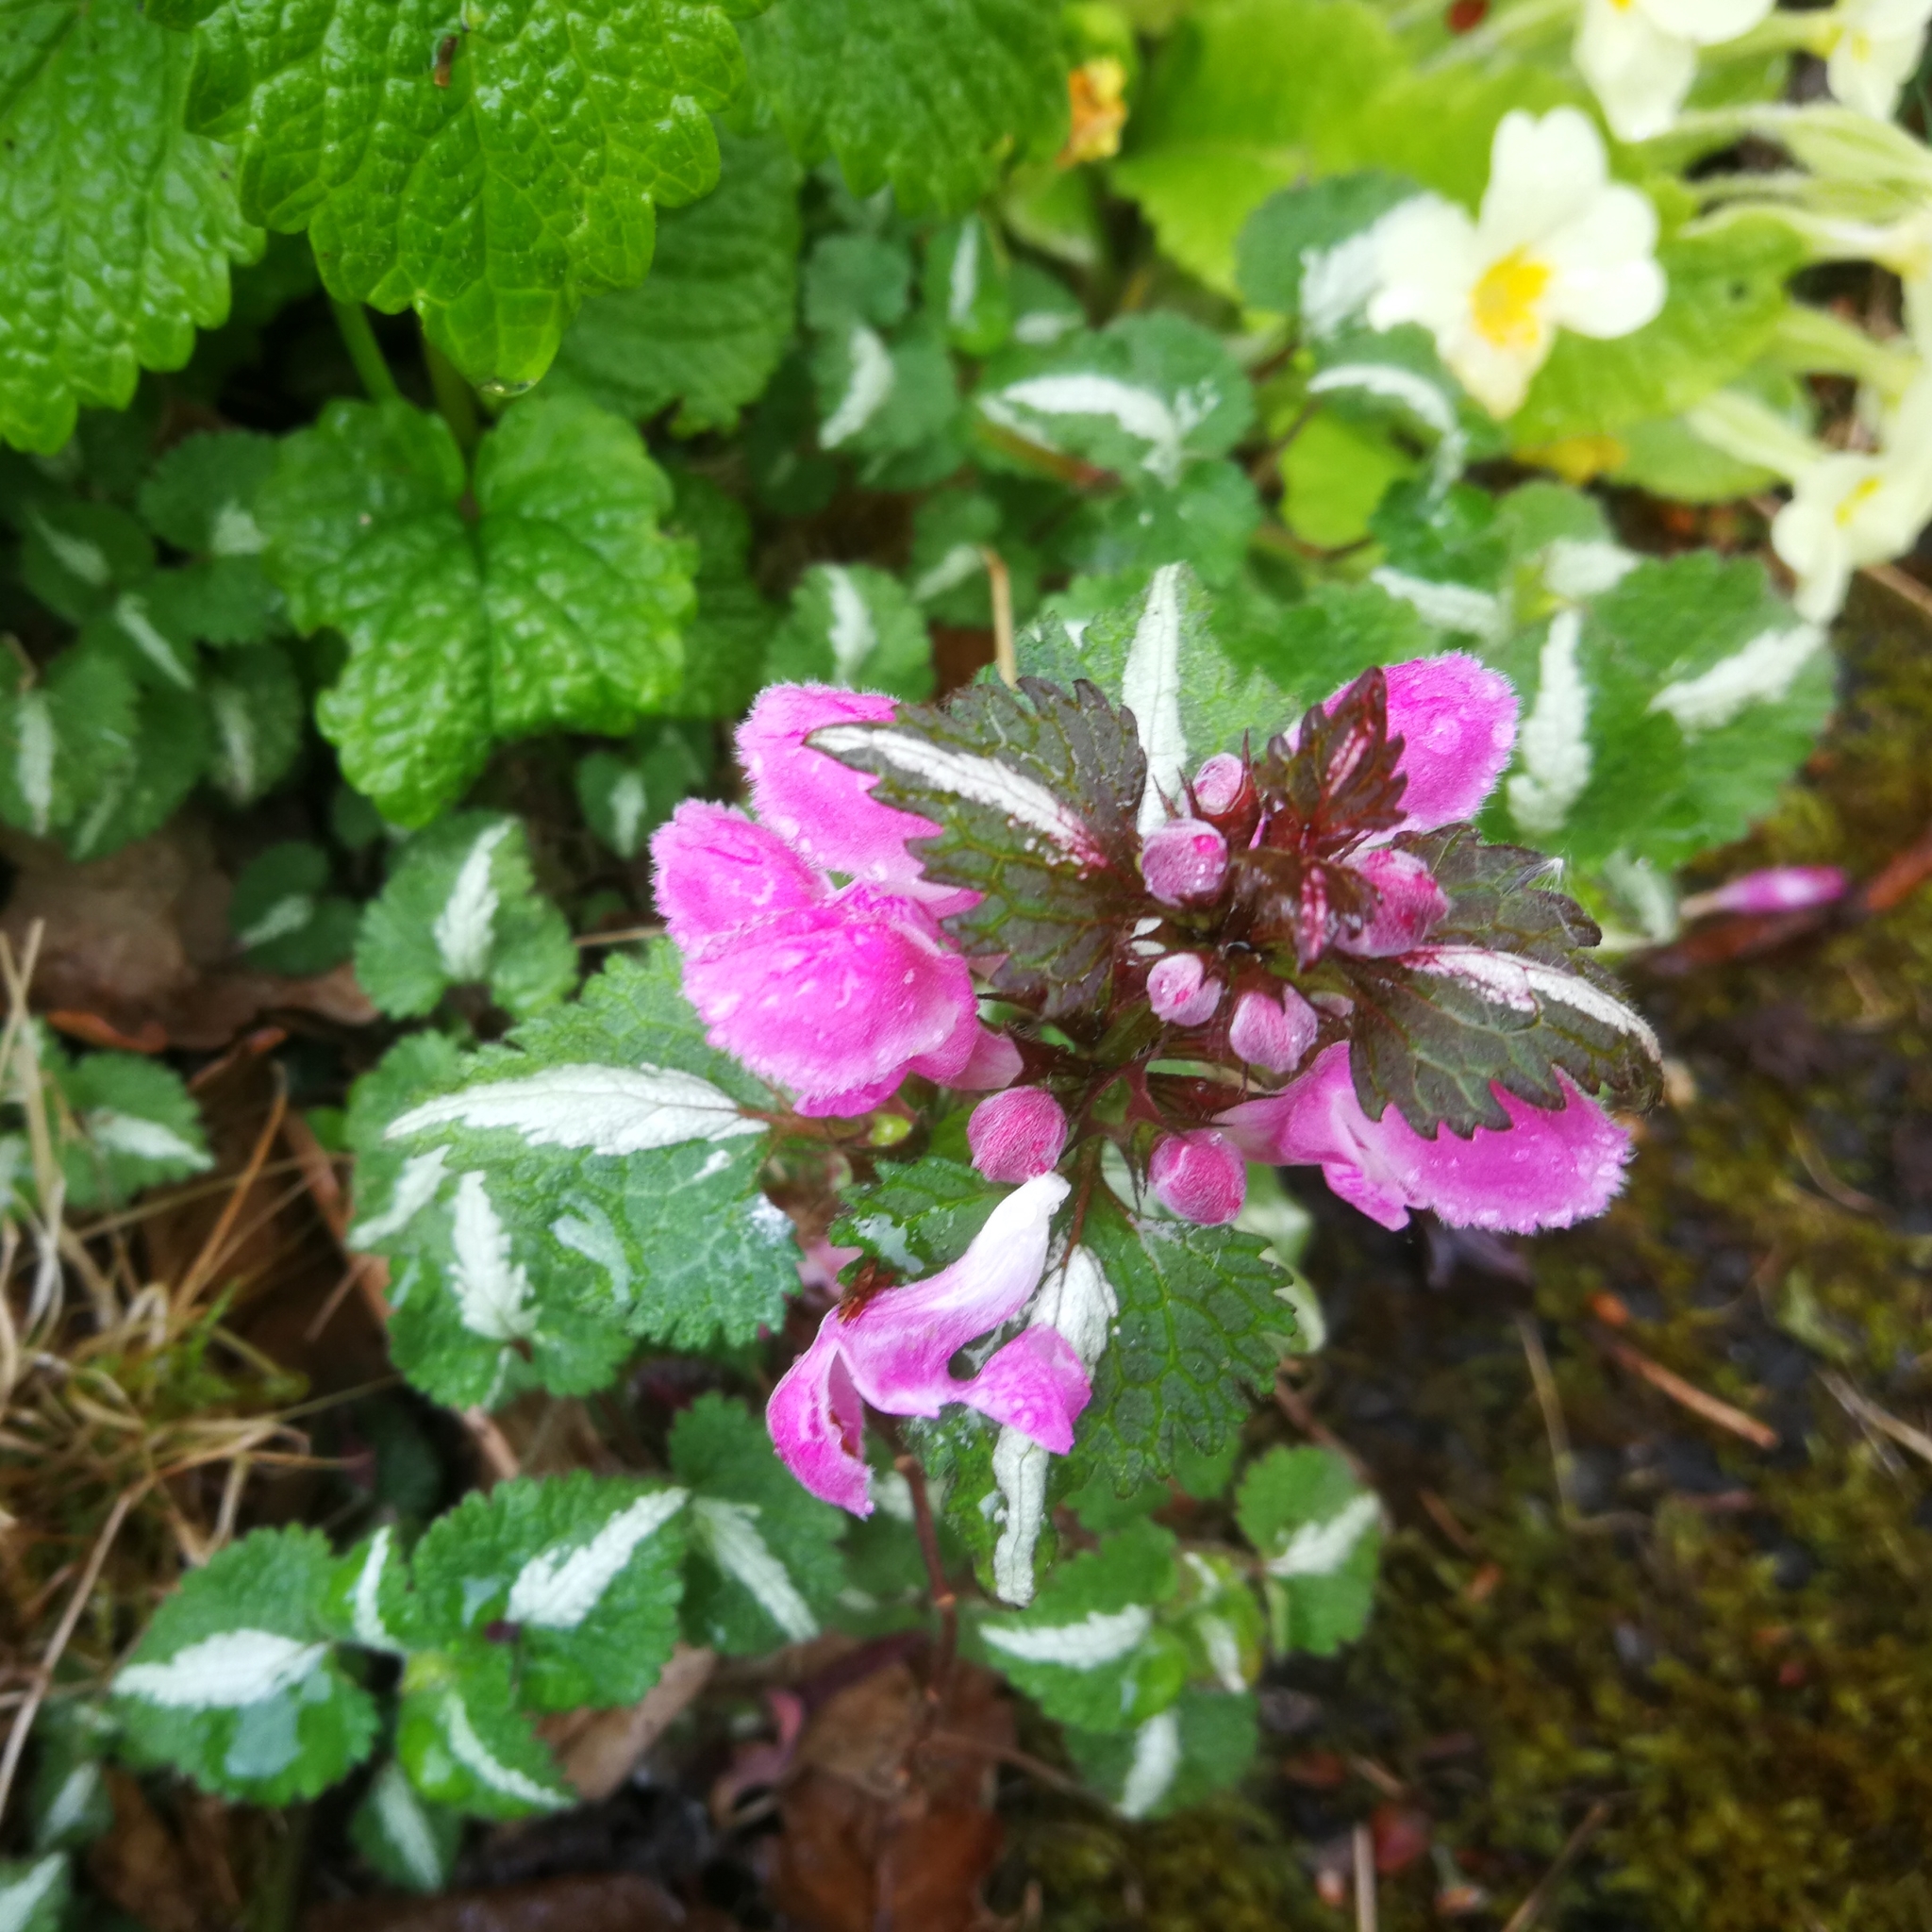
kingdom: Plantae
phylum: Tracheophyta
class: Magnoliopsida
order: Lamiales
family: Lamiaceae
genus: Lamium
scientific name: Lamium maculatum
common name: Spotted dead-nettle
